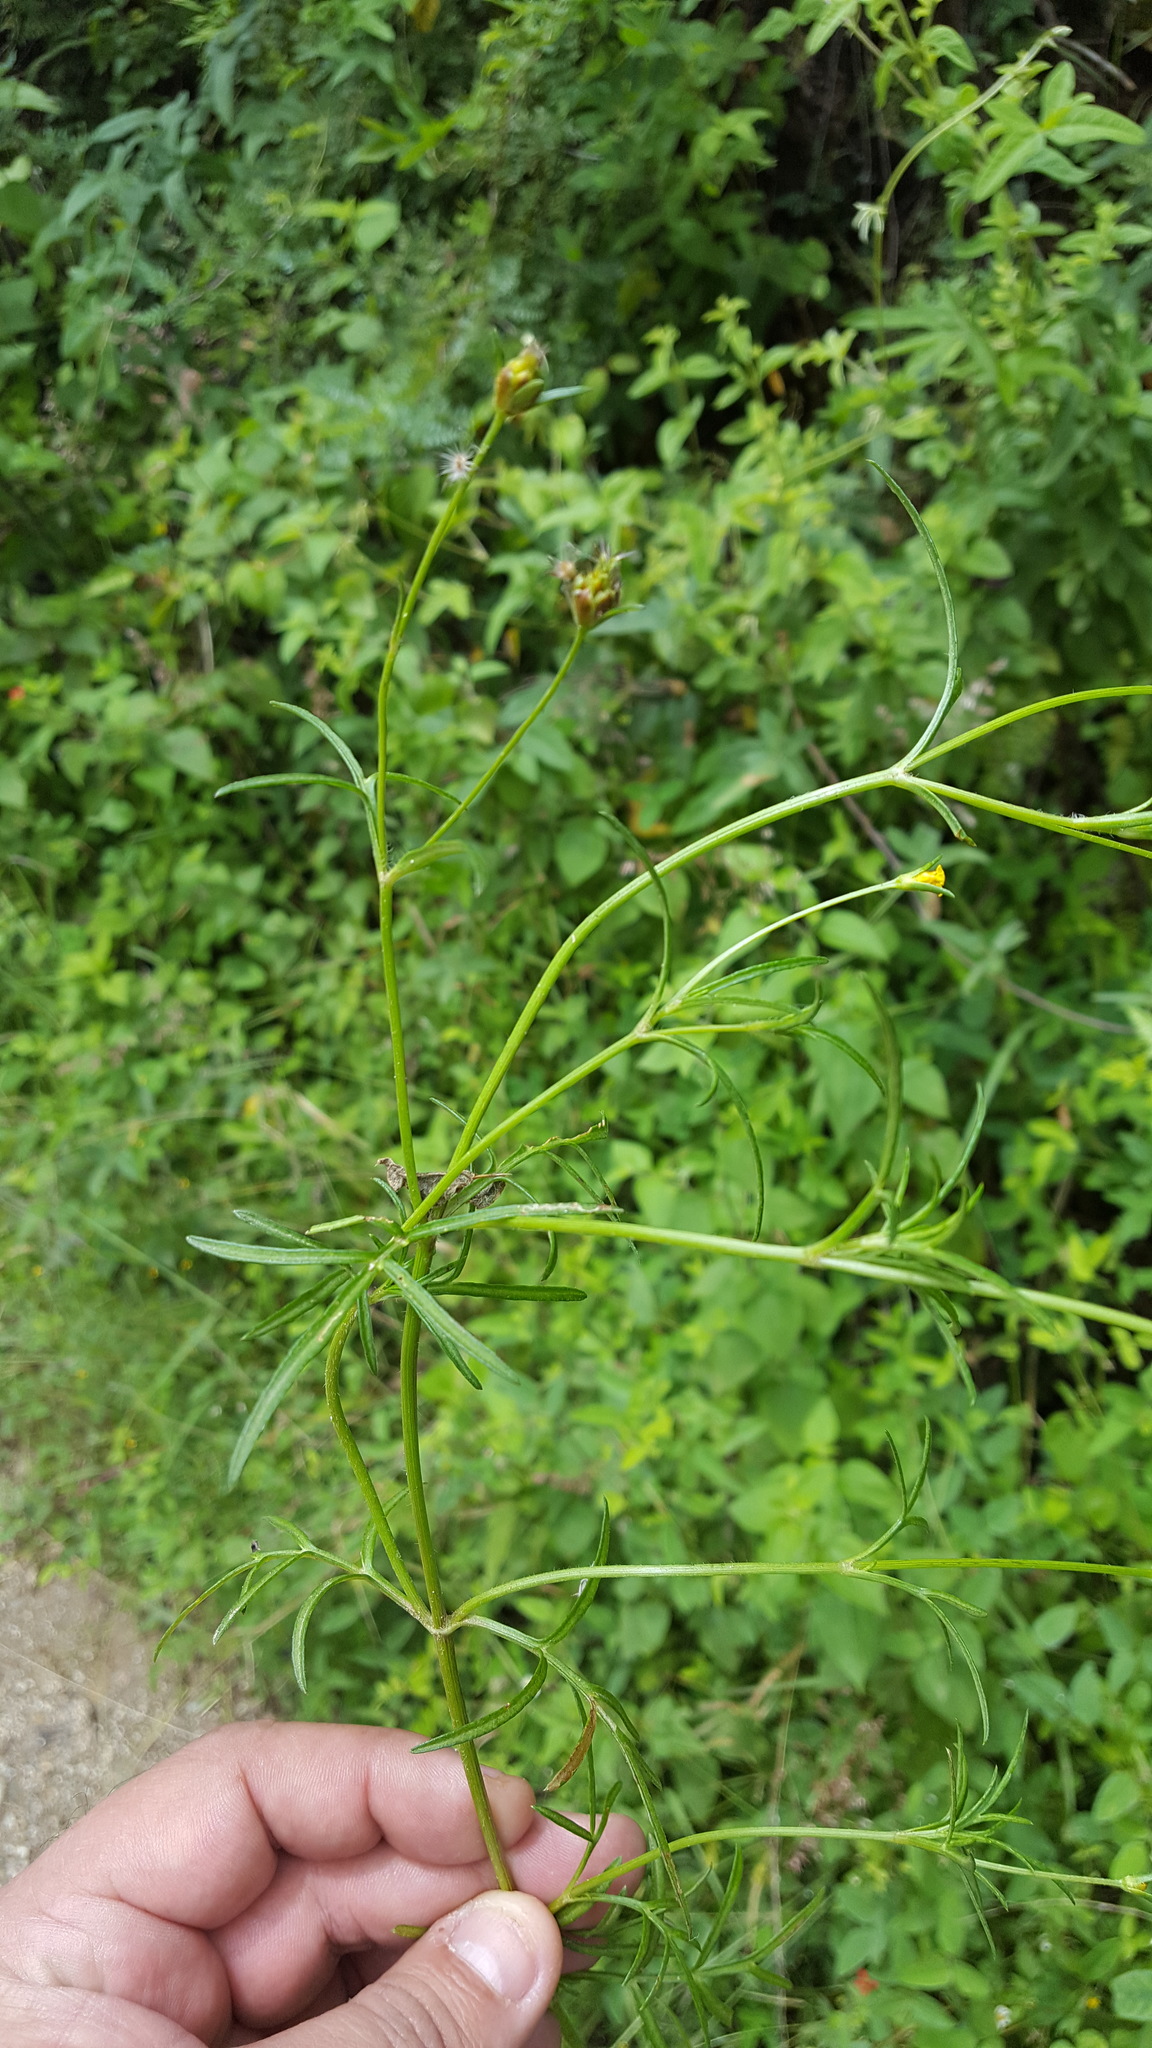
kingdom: Plantae
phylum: Tracheophyta
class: Magnoliopsida
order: Asterales
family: Asteraceae
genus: Heterosperma
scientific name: Heterosperma pinnatum
